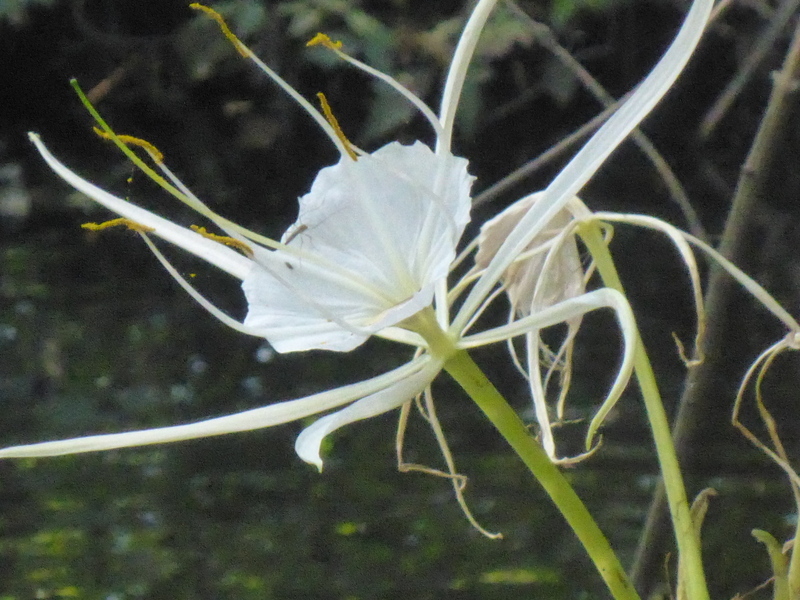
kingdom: Plantae
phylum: Tracheophyta
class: Liliopsida
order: Asparagales
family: Amaryllidaceae
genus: Hymenocallis
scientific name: Hymenocallis franklinensis
